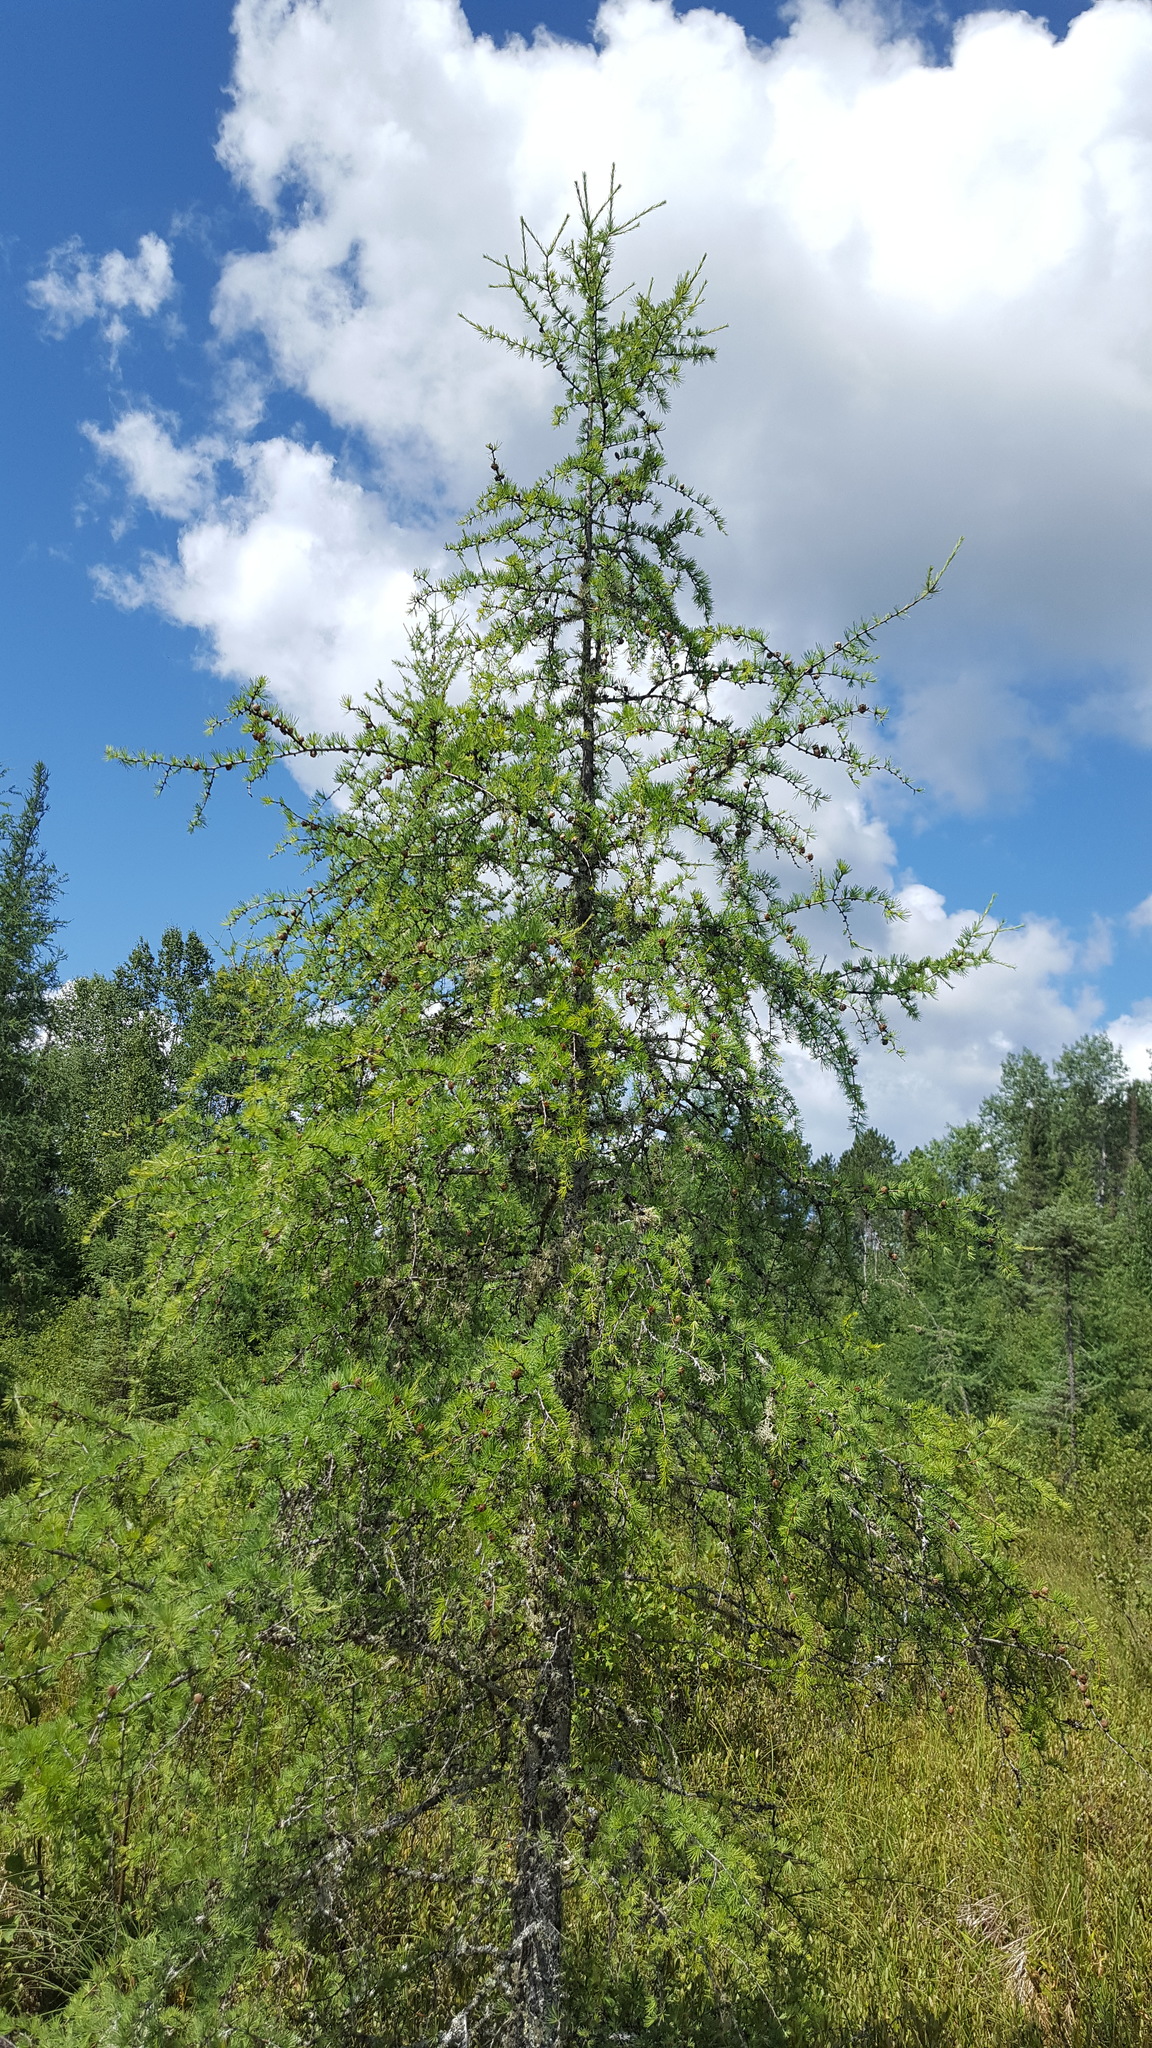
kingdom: Plantae
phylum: Tracheophyta
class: Pinopsida
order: Pinales
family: Pinaceae
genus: Larix
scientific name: Larix laricina
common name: American larch
